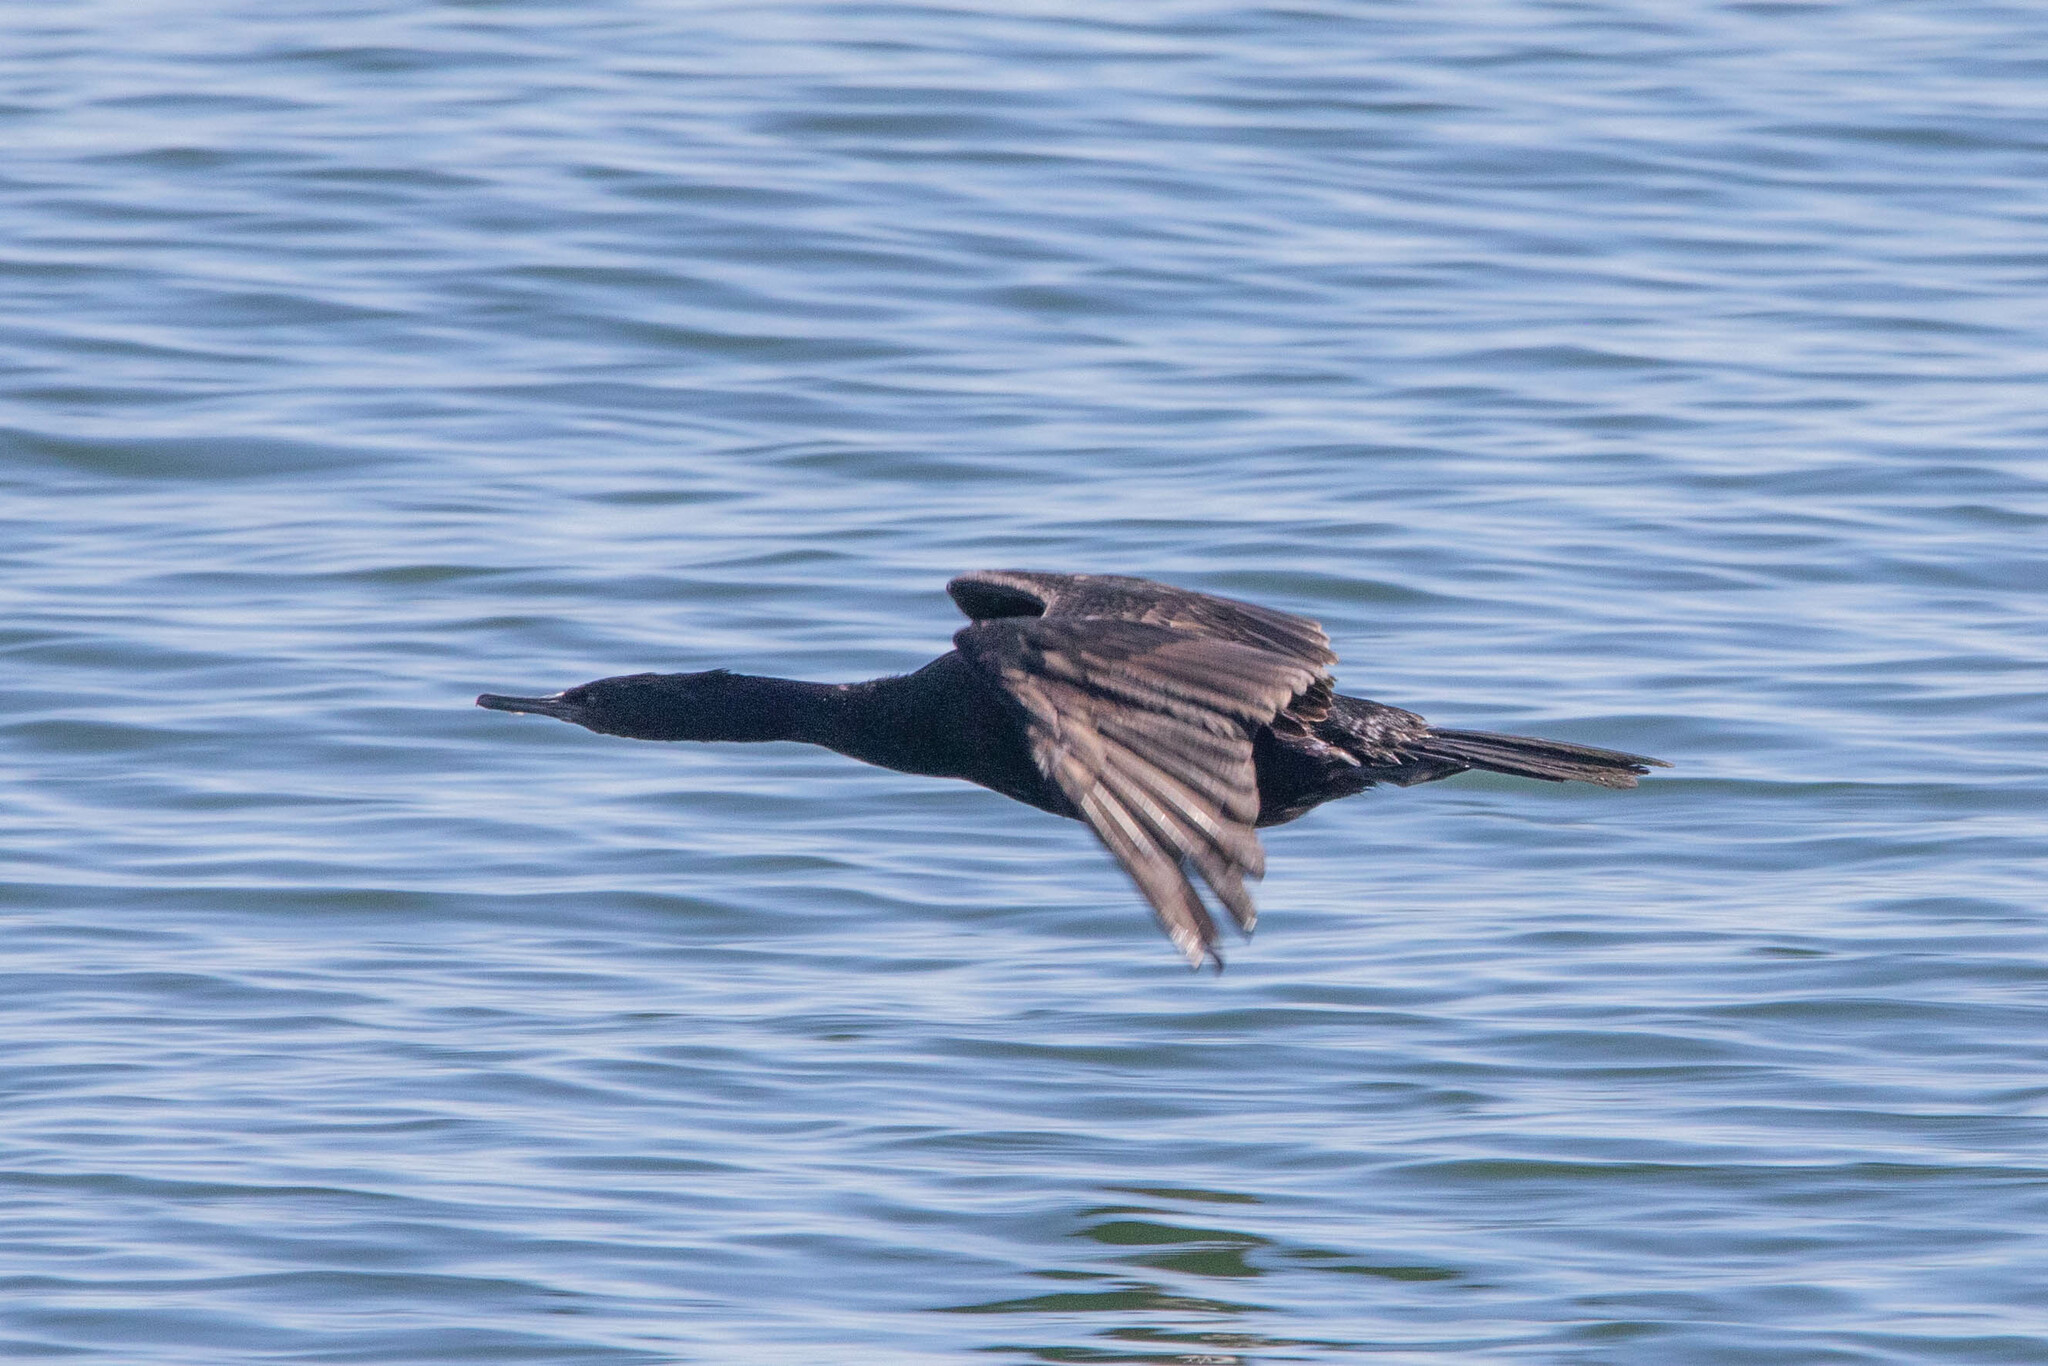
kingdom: Animalia
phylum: Chordata
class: Aves
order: Suliformes
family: Phalacrocoracidae
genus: Phalacrocorax
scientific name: Phalacrocorax pelagicus
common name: Pelagic cormorant
